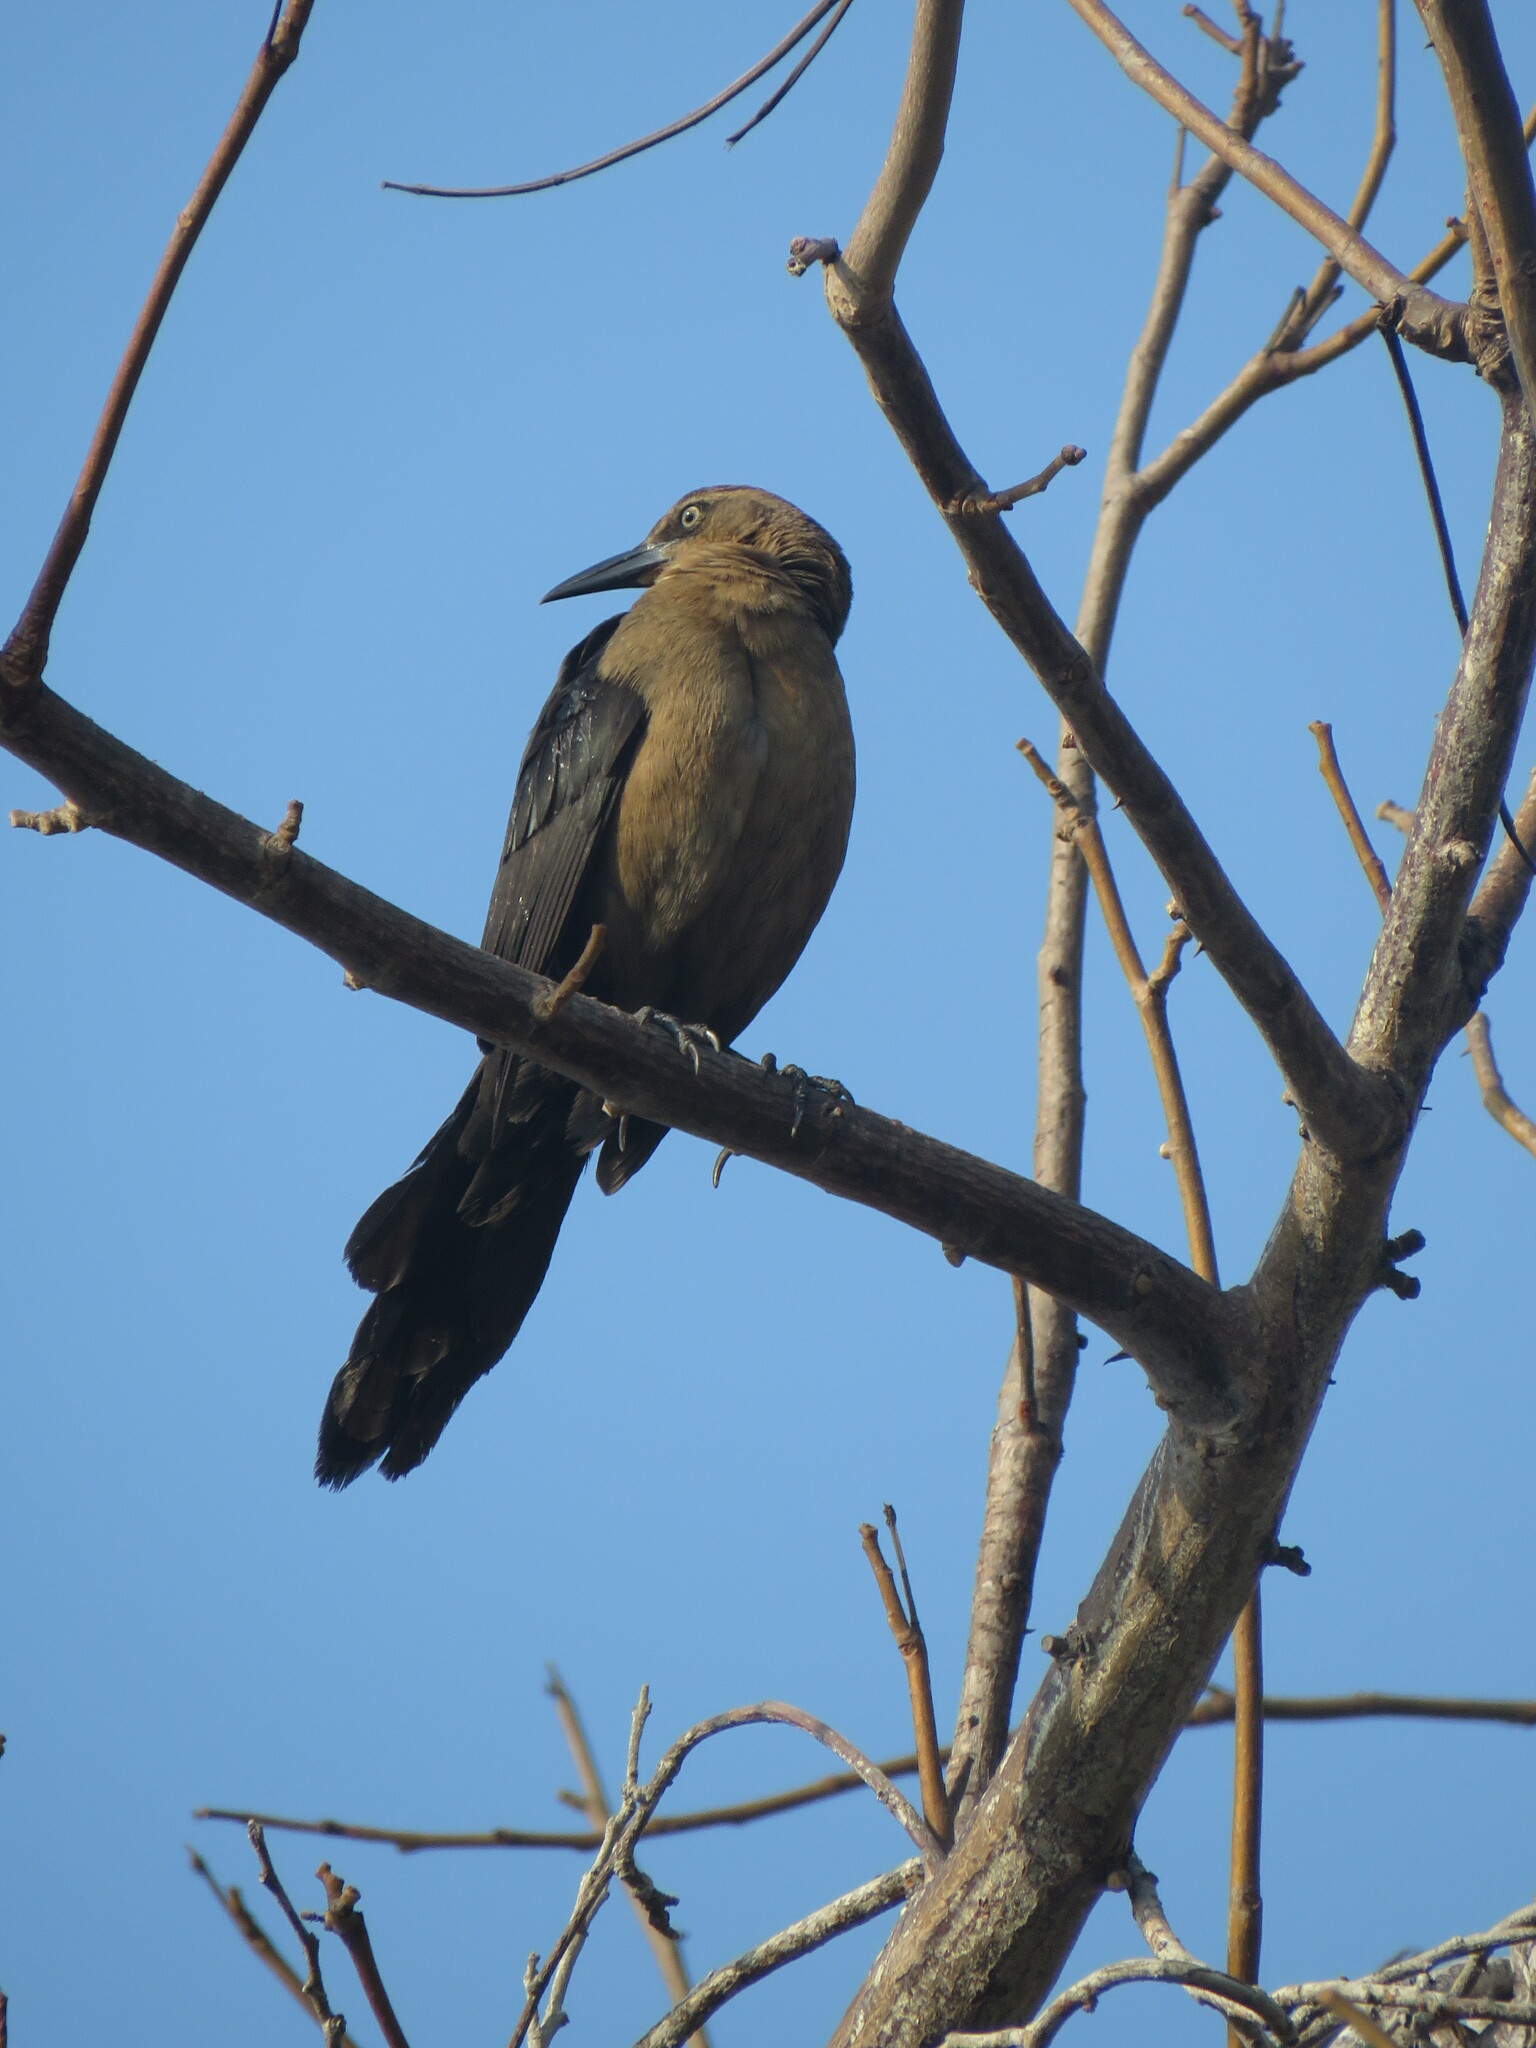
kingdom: Animalia
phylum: Chordata
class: Aves
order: Passeriformes
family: Icteridae
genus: Quiscalus
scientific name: Quiscalus mexicanus
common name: Great-tailed grackle
